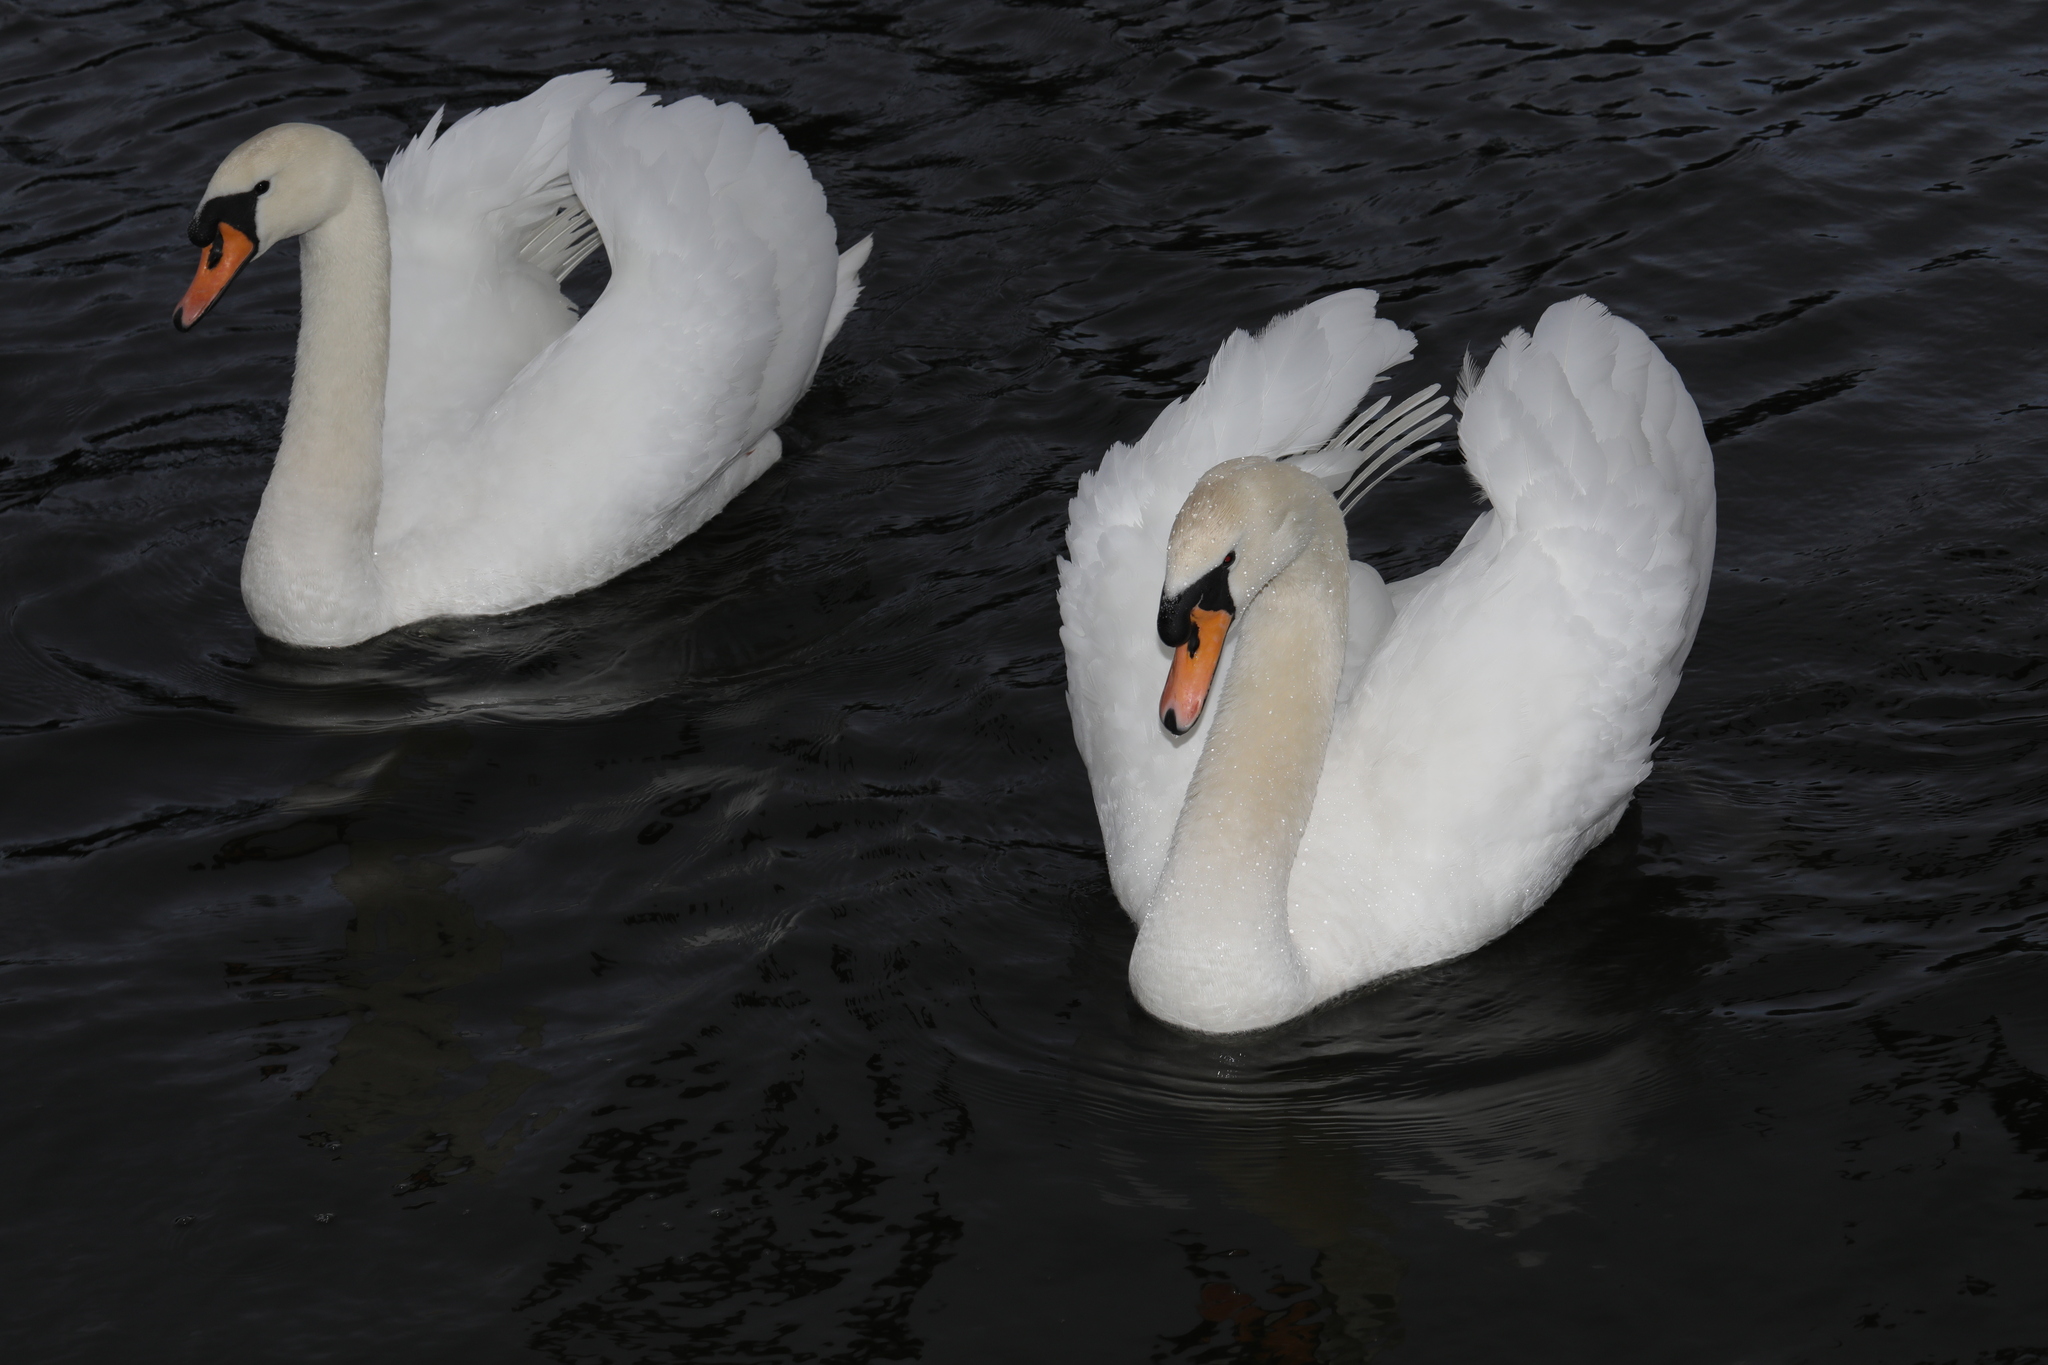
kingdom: Animalia
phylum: Chordata
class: Aves
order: Anseriformes
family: Anatidae
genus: Cygnus
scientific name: Cygnus olor
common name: Mute swan
